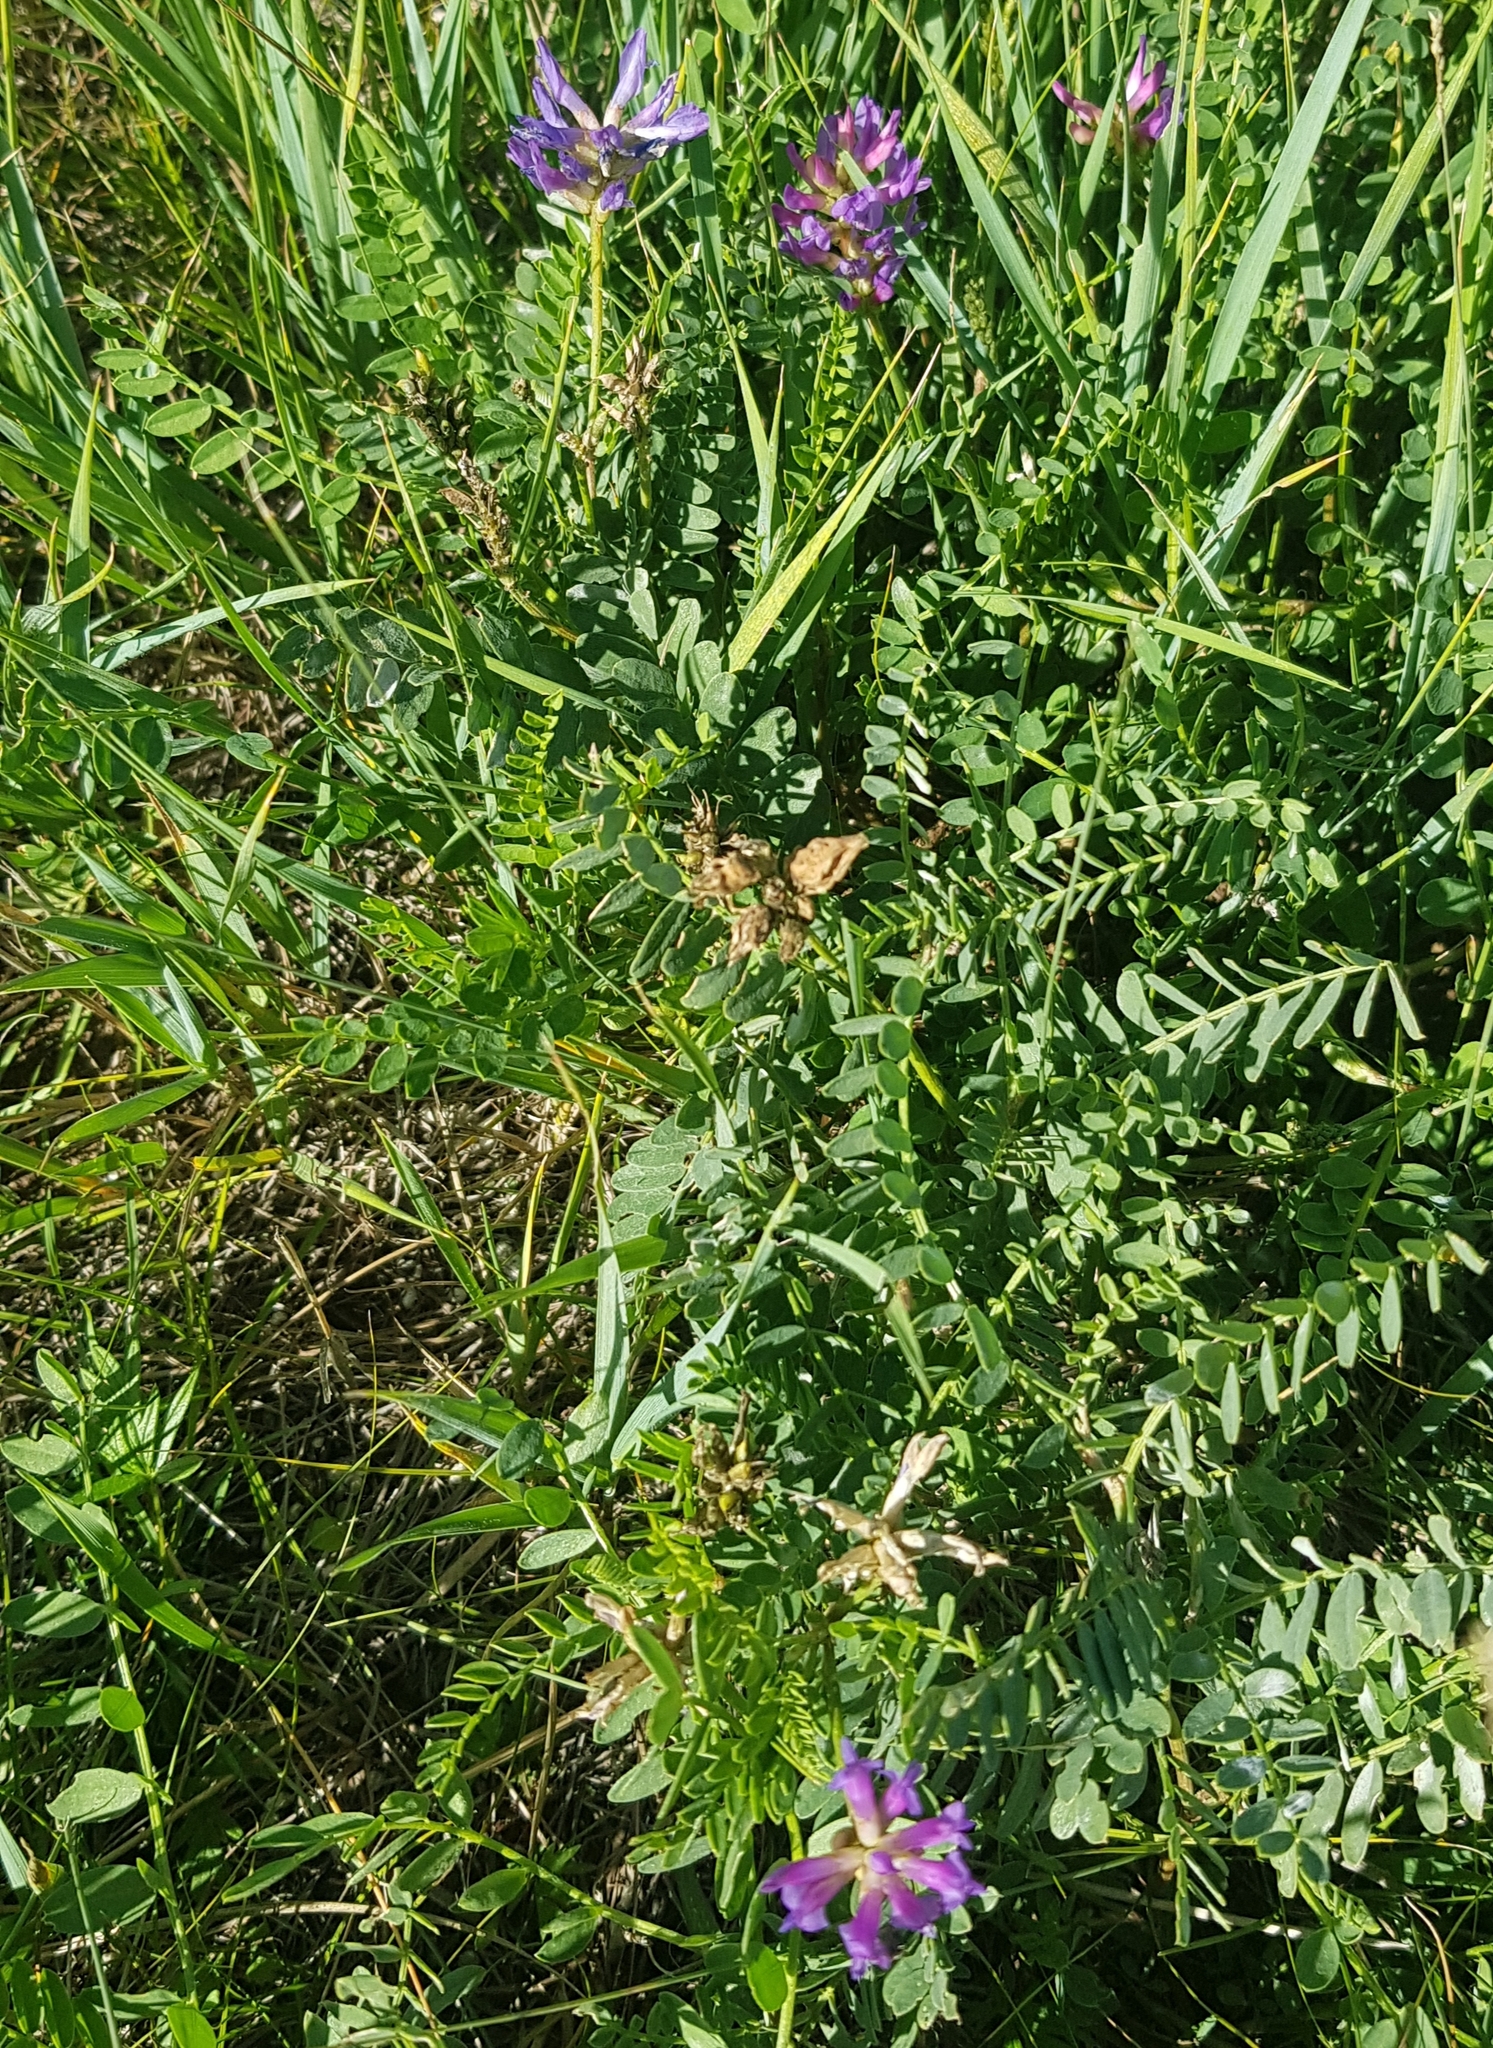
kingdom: Plantae
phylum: Tracheophyta
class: Magnoliopsida
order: Fabales
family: Fabaceae
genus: Astragalus
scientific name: Astragalus danicus
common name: Purple milk-vetch
